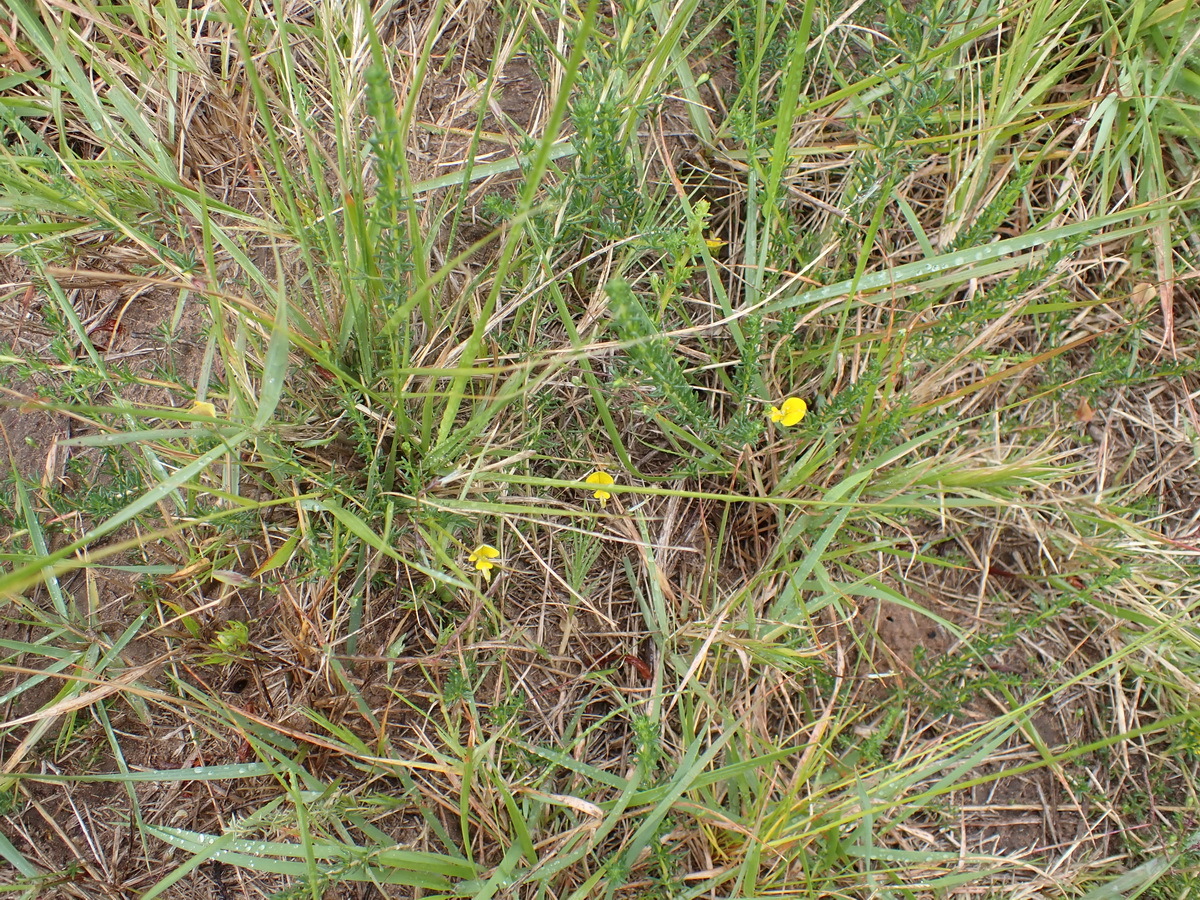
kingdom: Plantae
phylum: Tracheophyta
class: Magnoliopsida
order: Fabales
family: Fabaceae
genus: Aspalathus
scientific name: Aspalathus biflora
